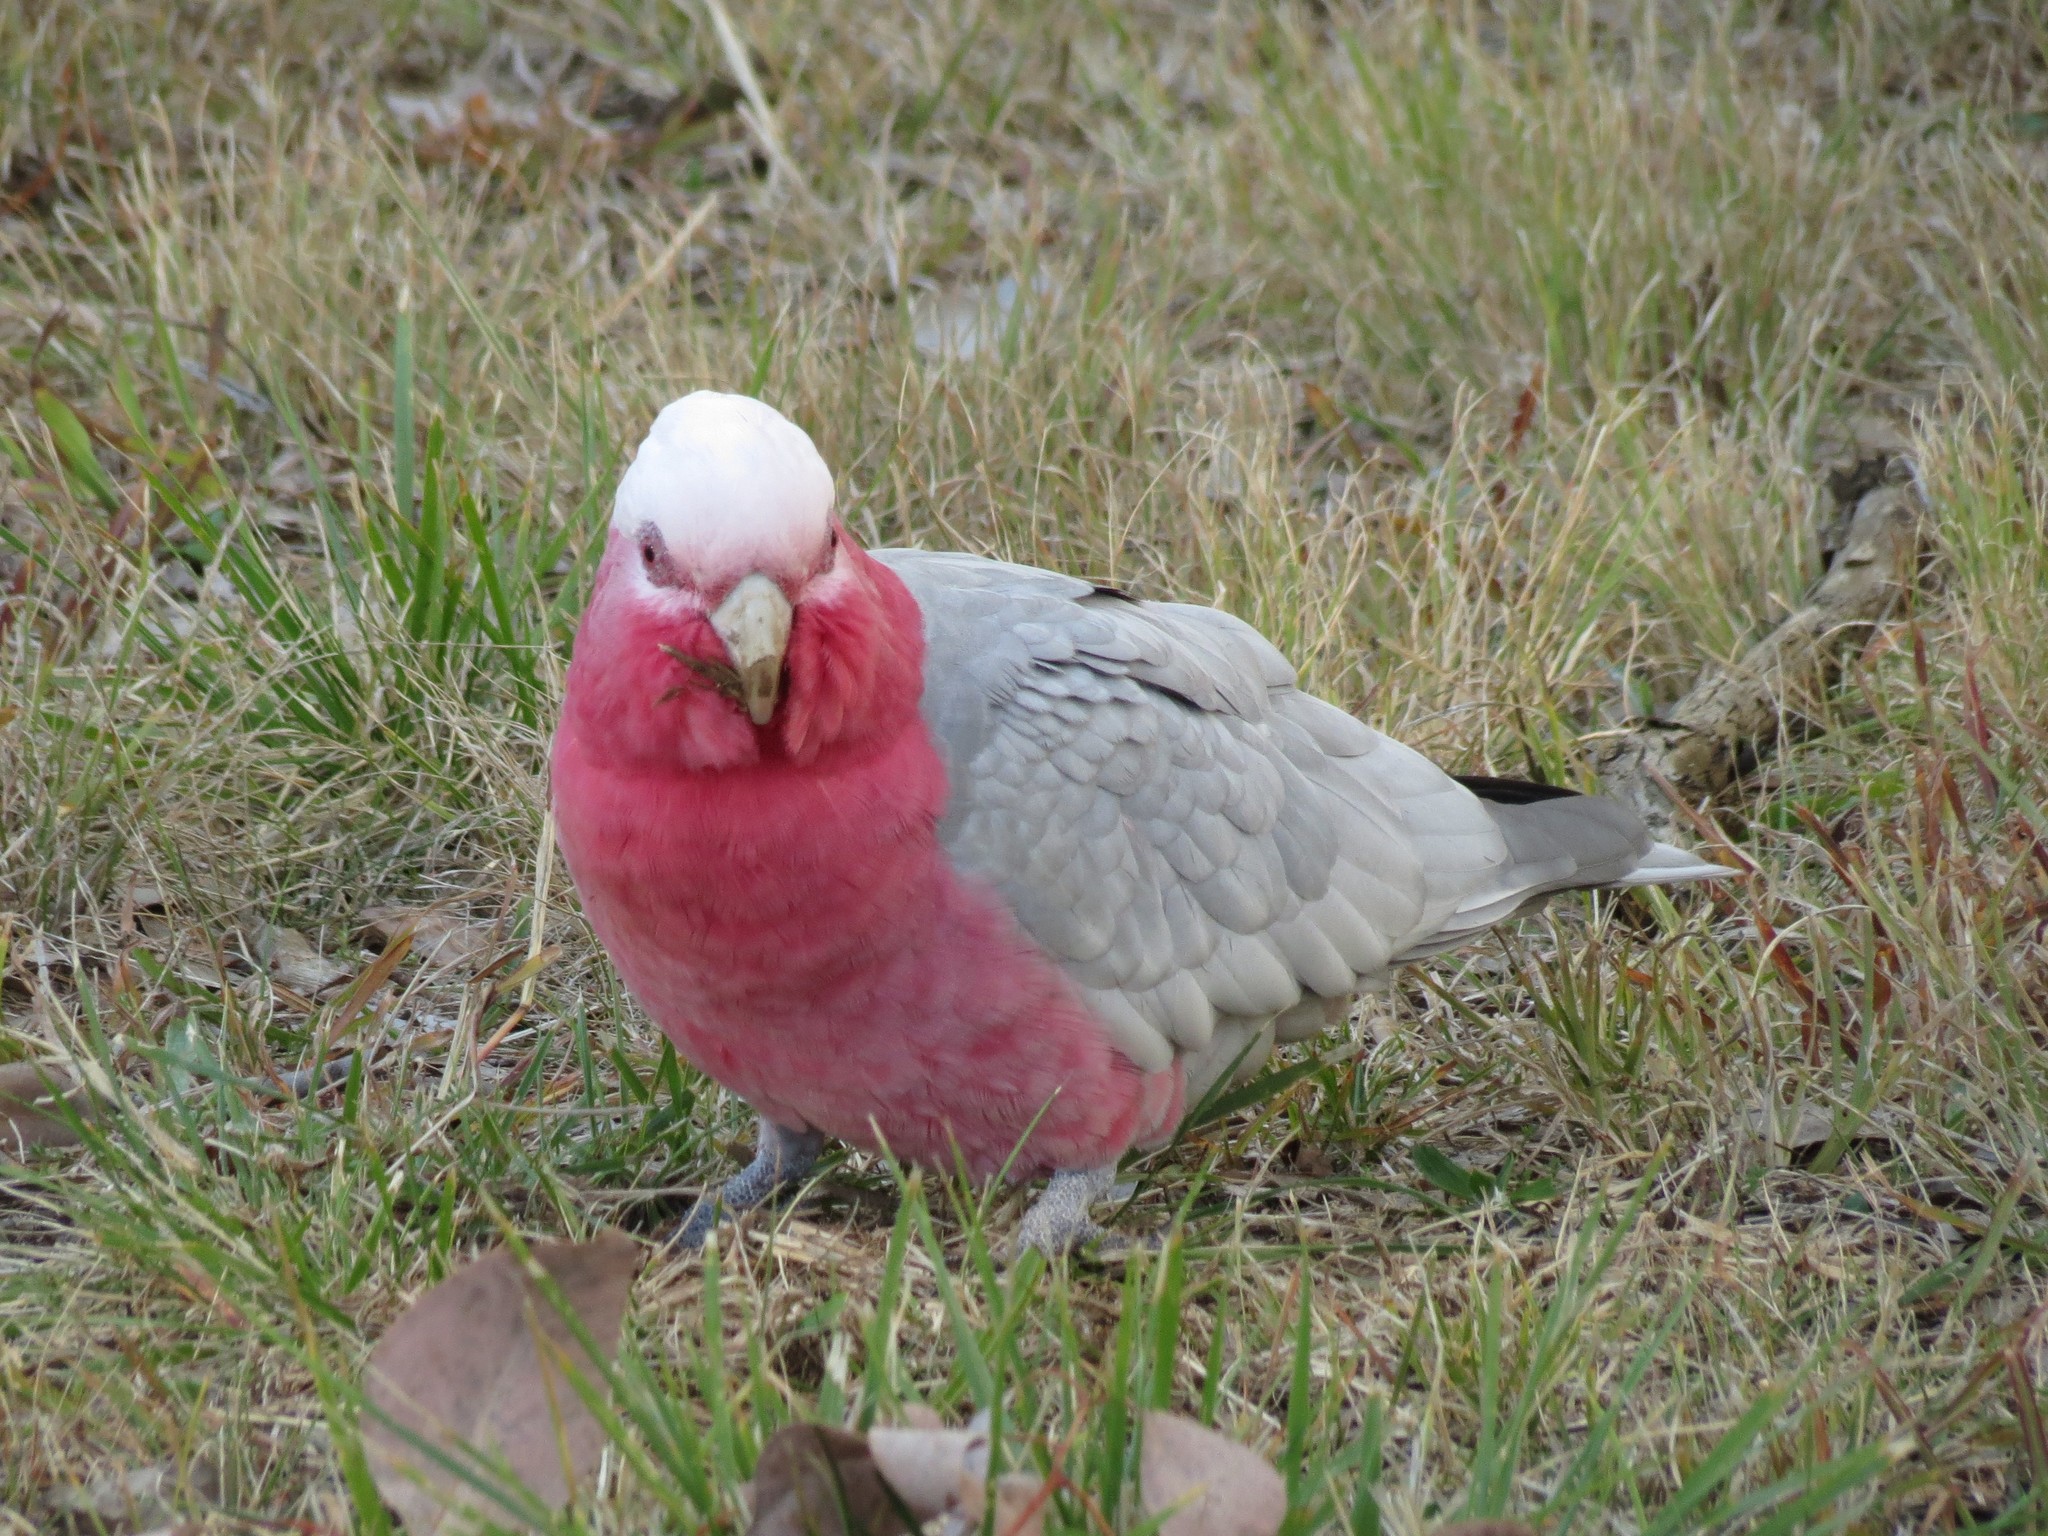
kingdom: Animalia
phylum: Chordata
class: Aves
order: Psittaciformes
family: Psittacidae
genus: Eolophus
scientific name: Eolophus roseicapilla
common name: Galah
